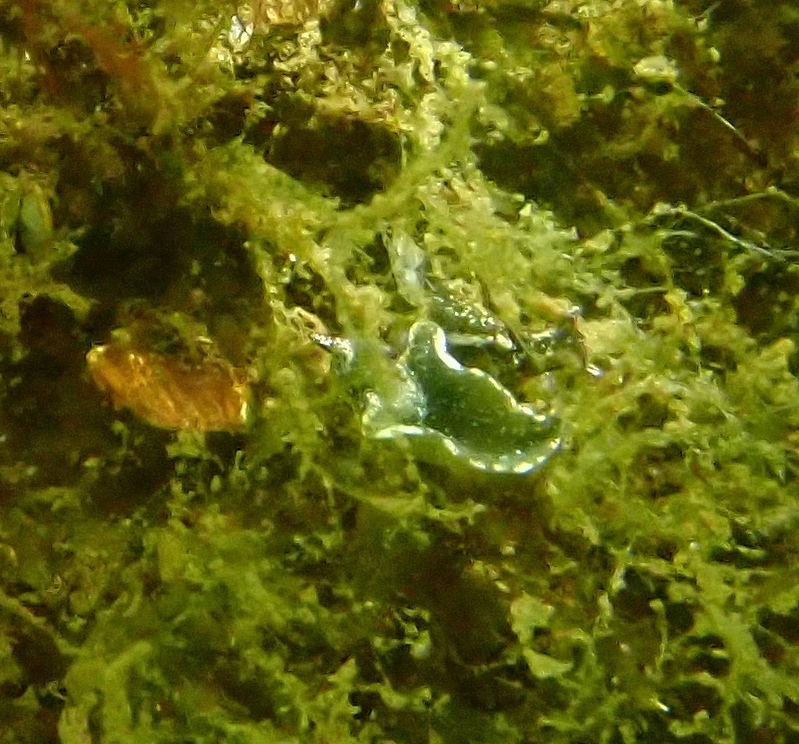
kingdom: Animalia
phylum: Mollusca
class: Gastropoda
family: Plakobranchidae
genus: Elysia
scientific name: Elysia viridis
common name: Green elysia
